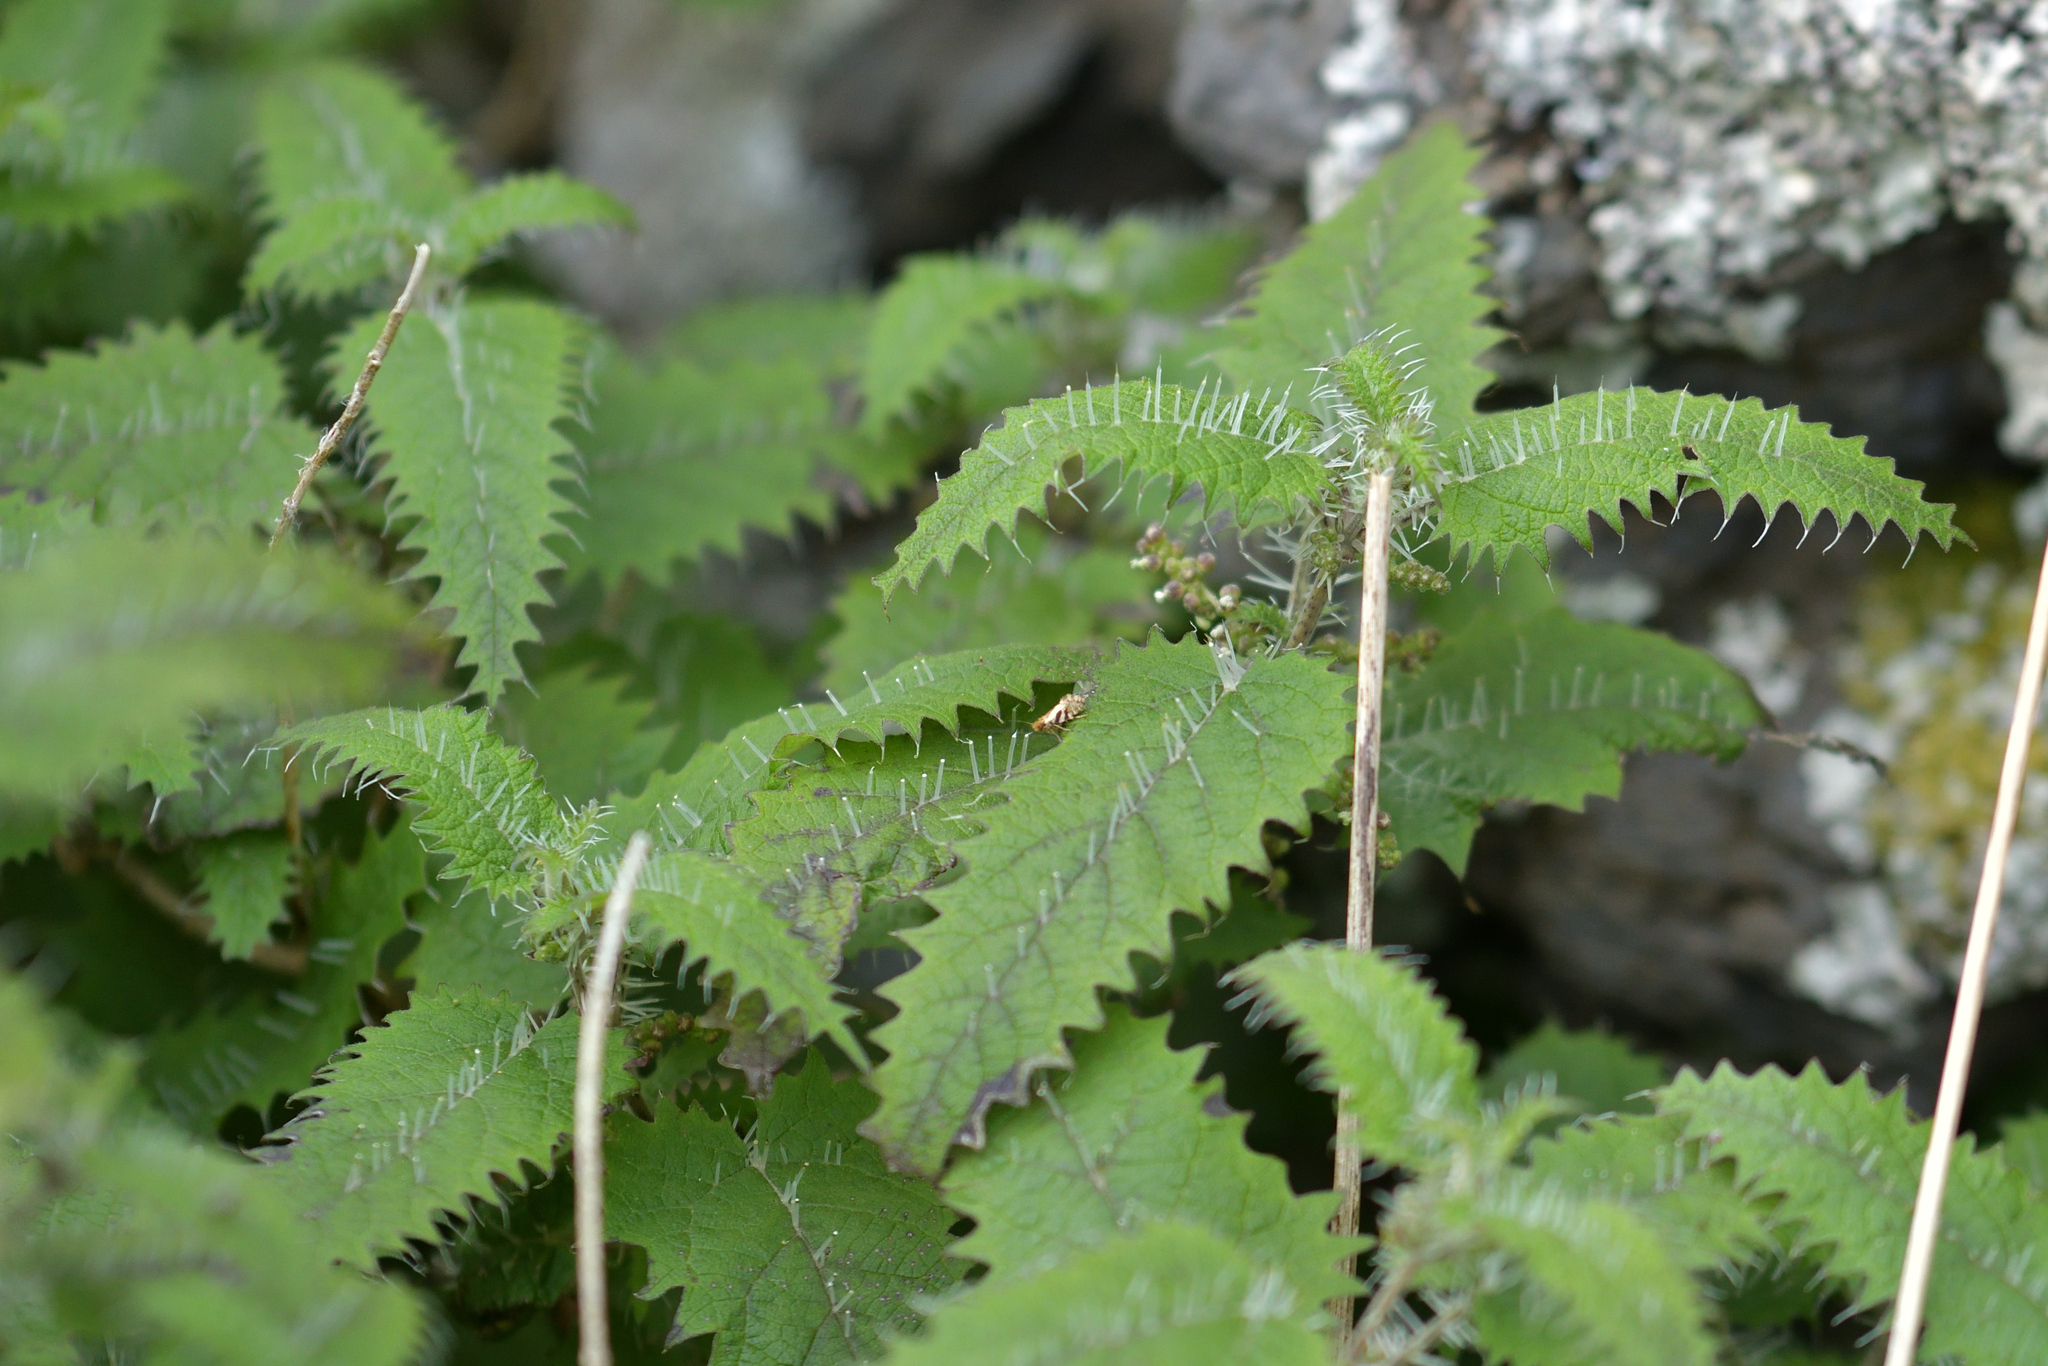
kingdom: Animalia
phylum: Arthropoda
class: Insecta
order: Lepidoptera
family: Micropterigidae
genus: Sabatinca
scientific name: Sabatinca aenea
